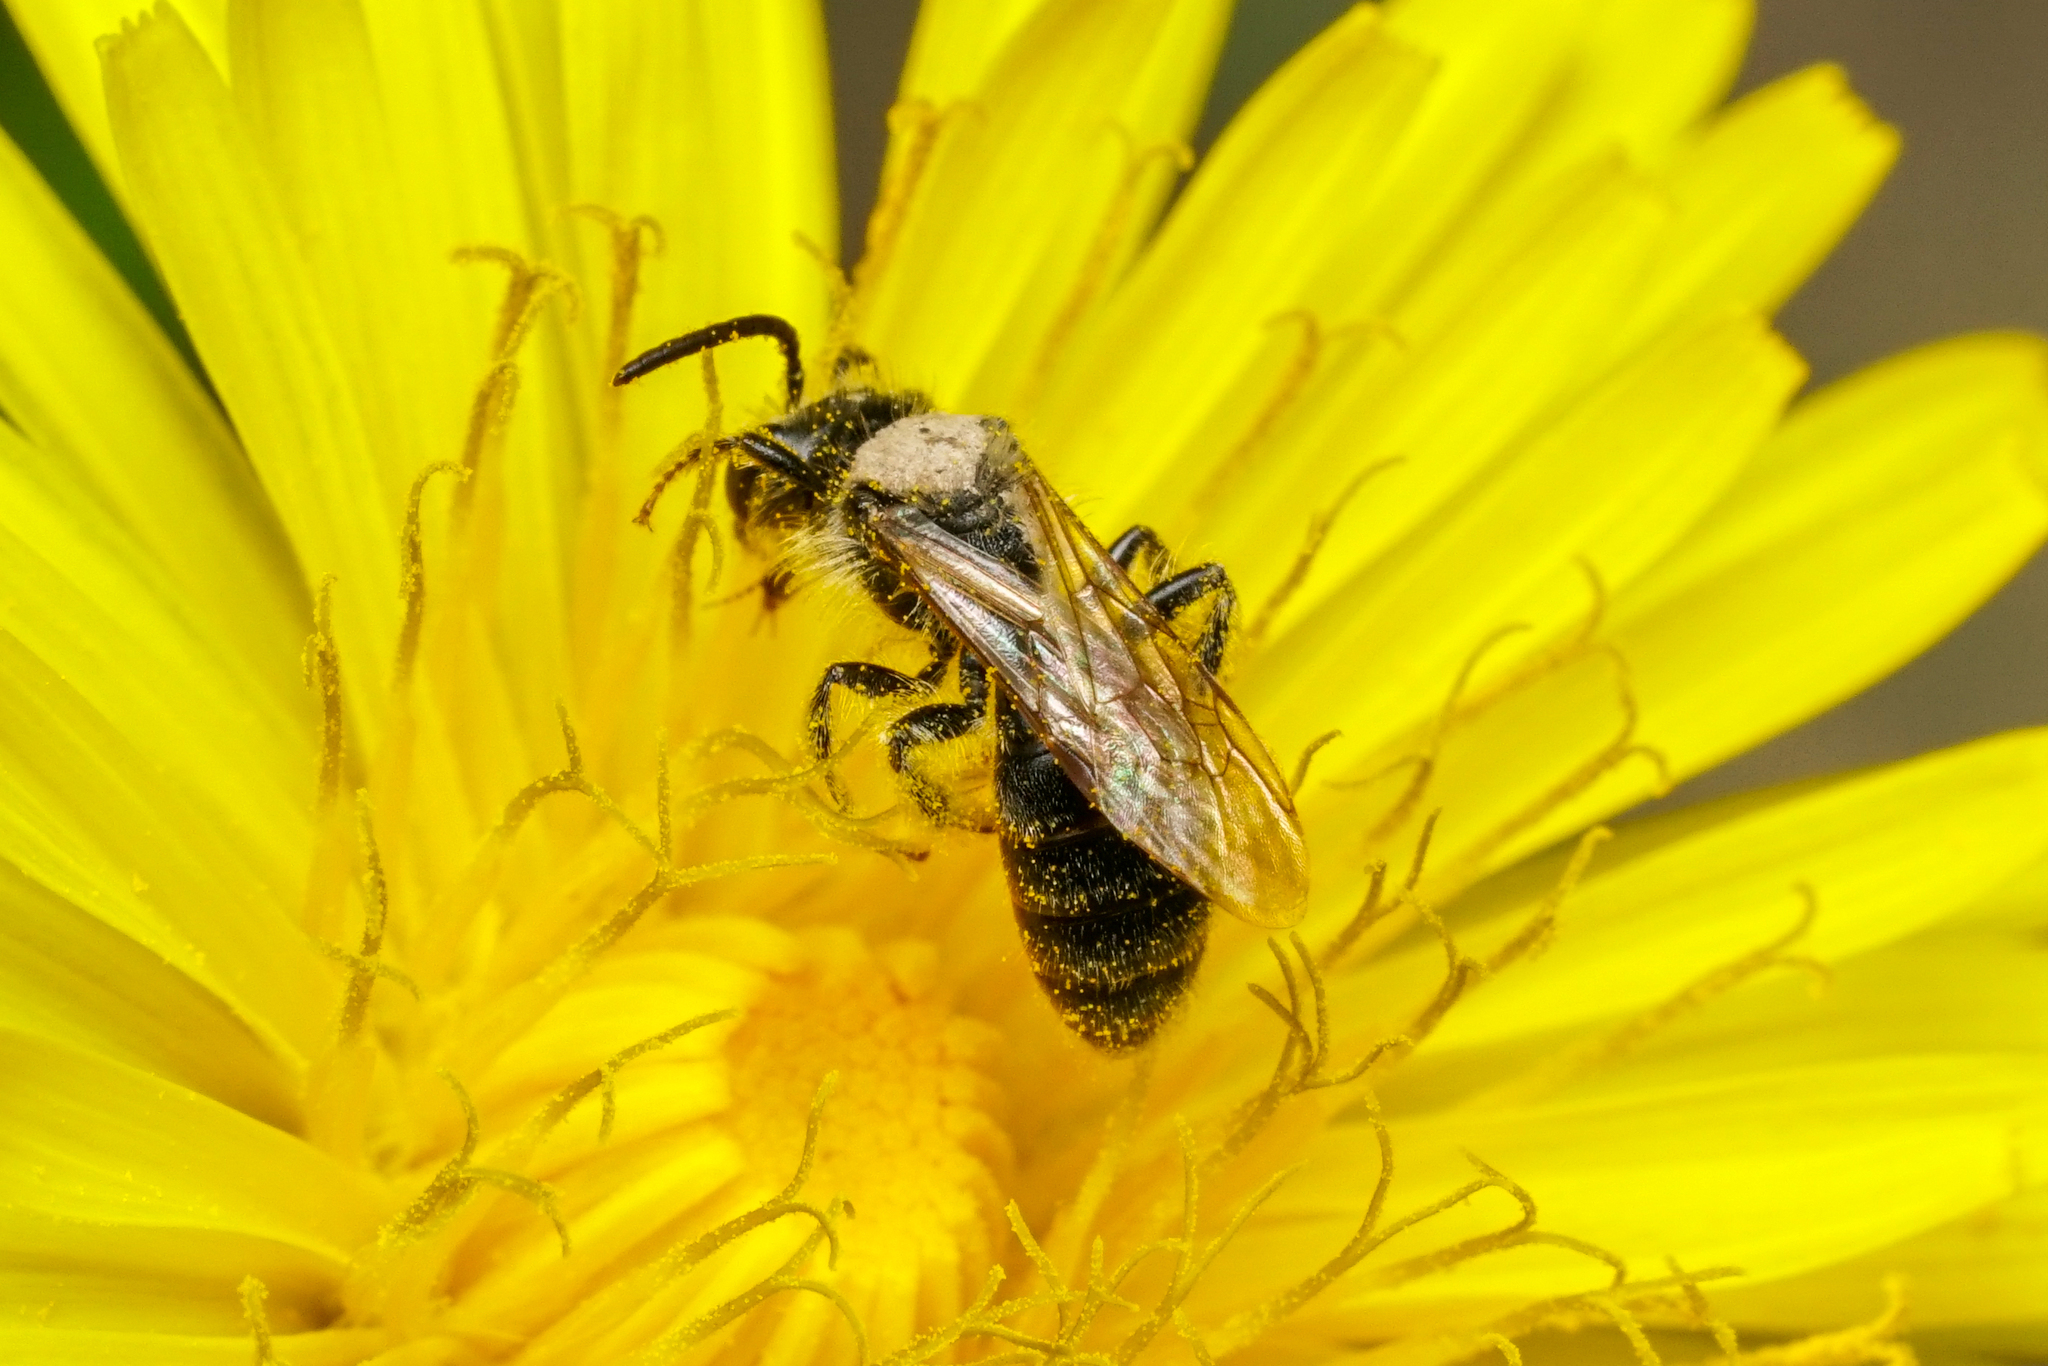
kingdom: Animalia
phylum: Arthropoda
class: Insecta
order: Hymenoptera
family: Andrenidae
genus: Andrena
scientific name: Andrena cressonii
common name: Cresson's mining bee
